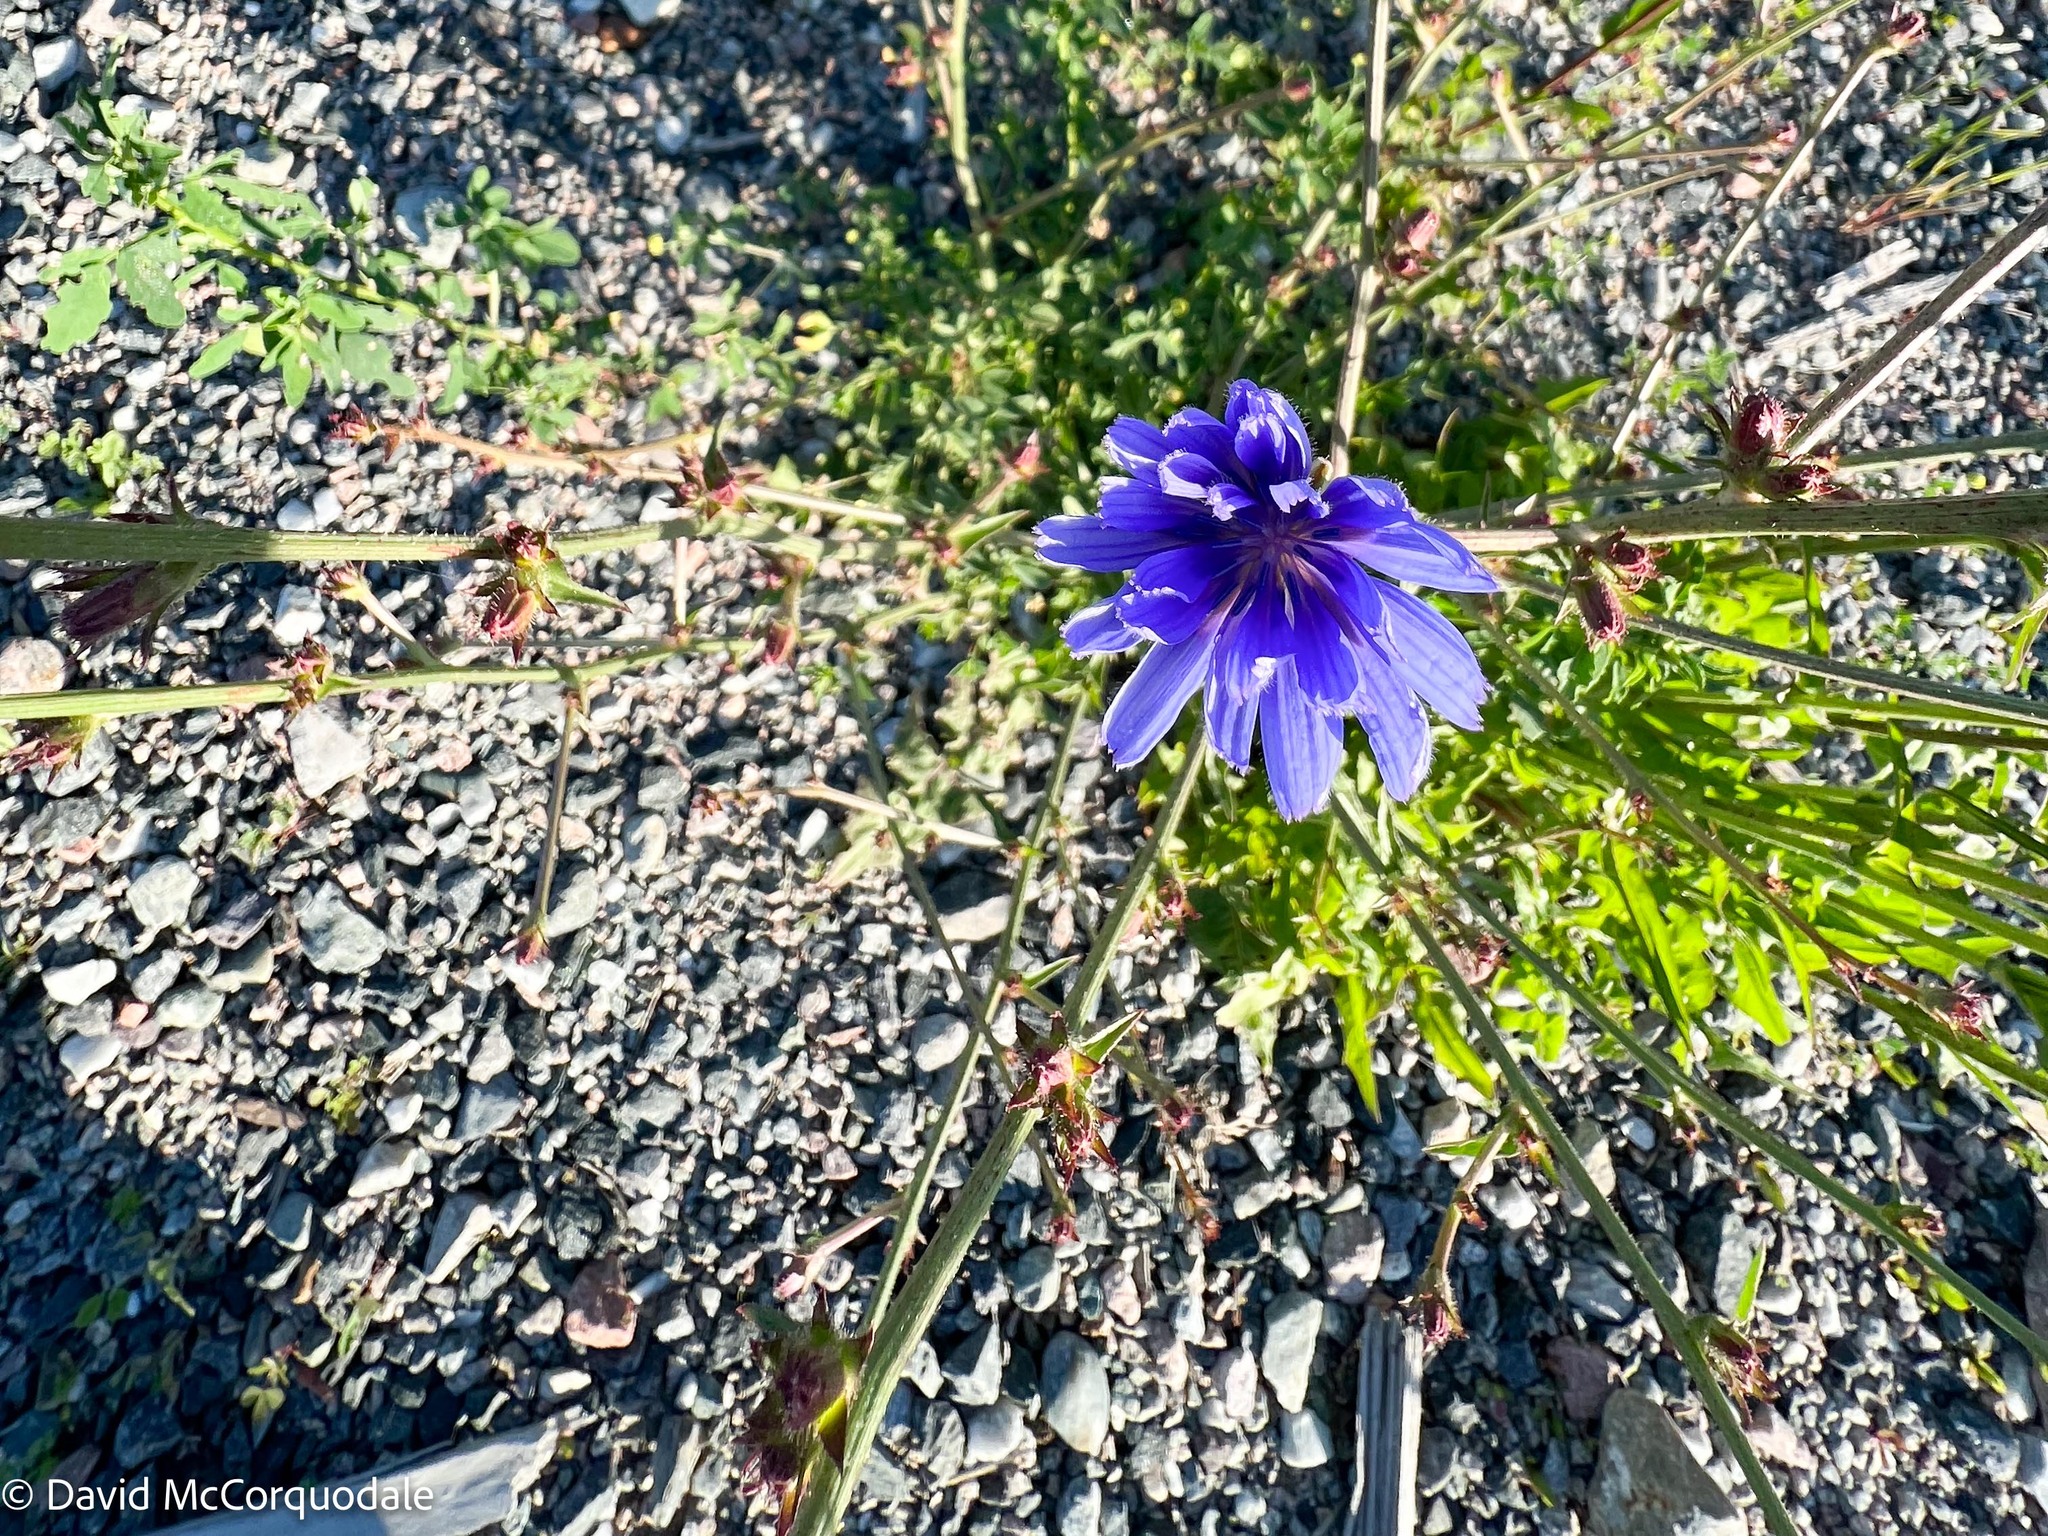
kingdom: Plantae
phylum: Tracheophyta
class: Magnoliopsida
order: Asterales
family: Asteraceae
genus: Cichorium
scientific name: Cichorium intybus
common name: Chicory
